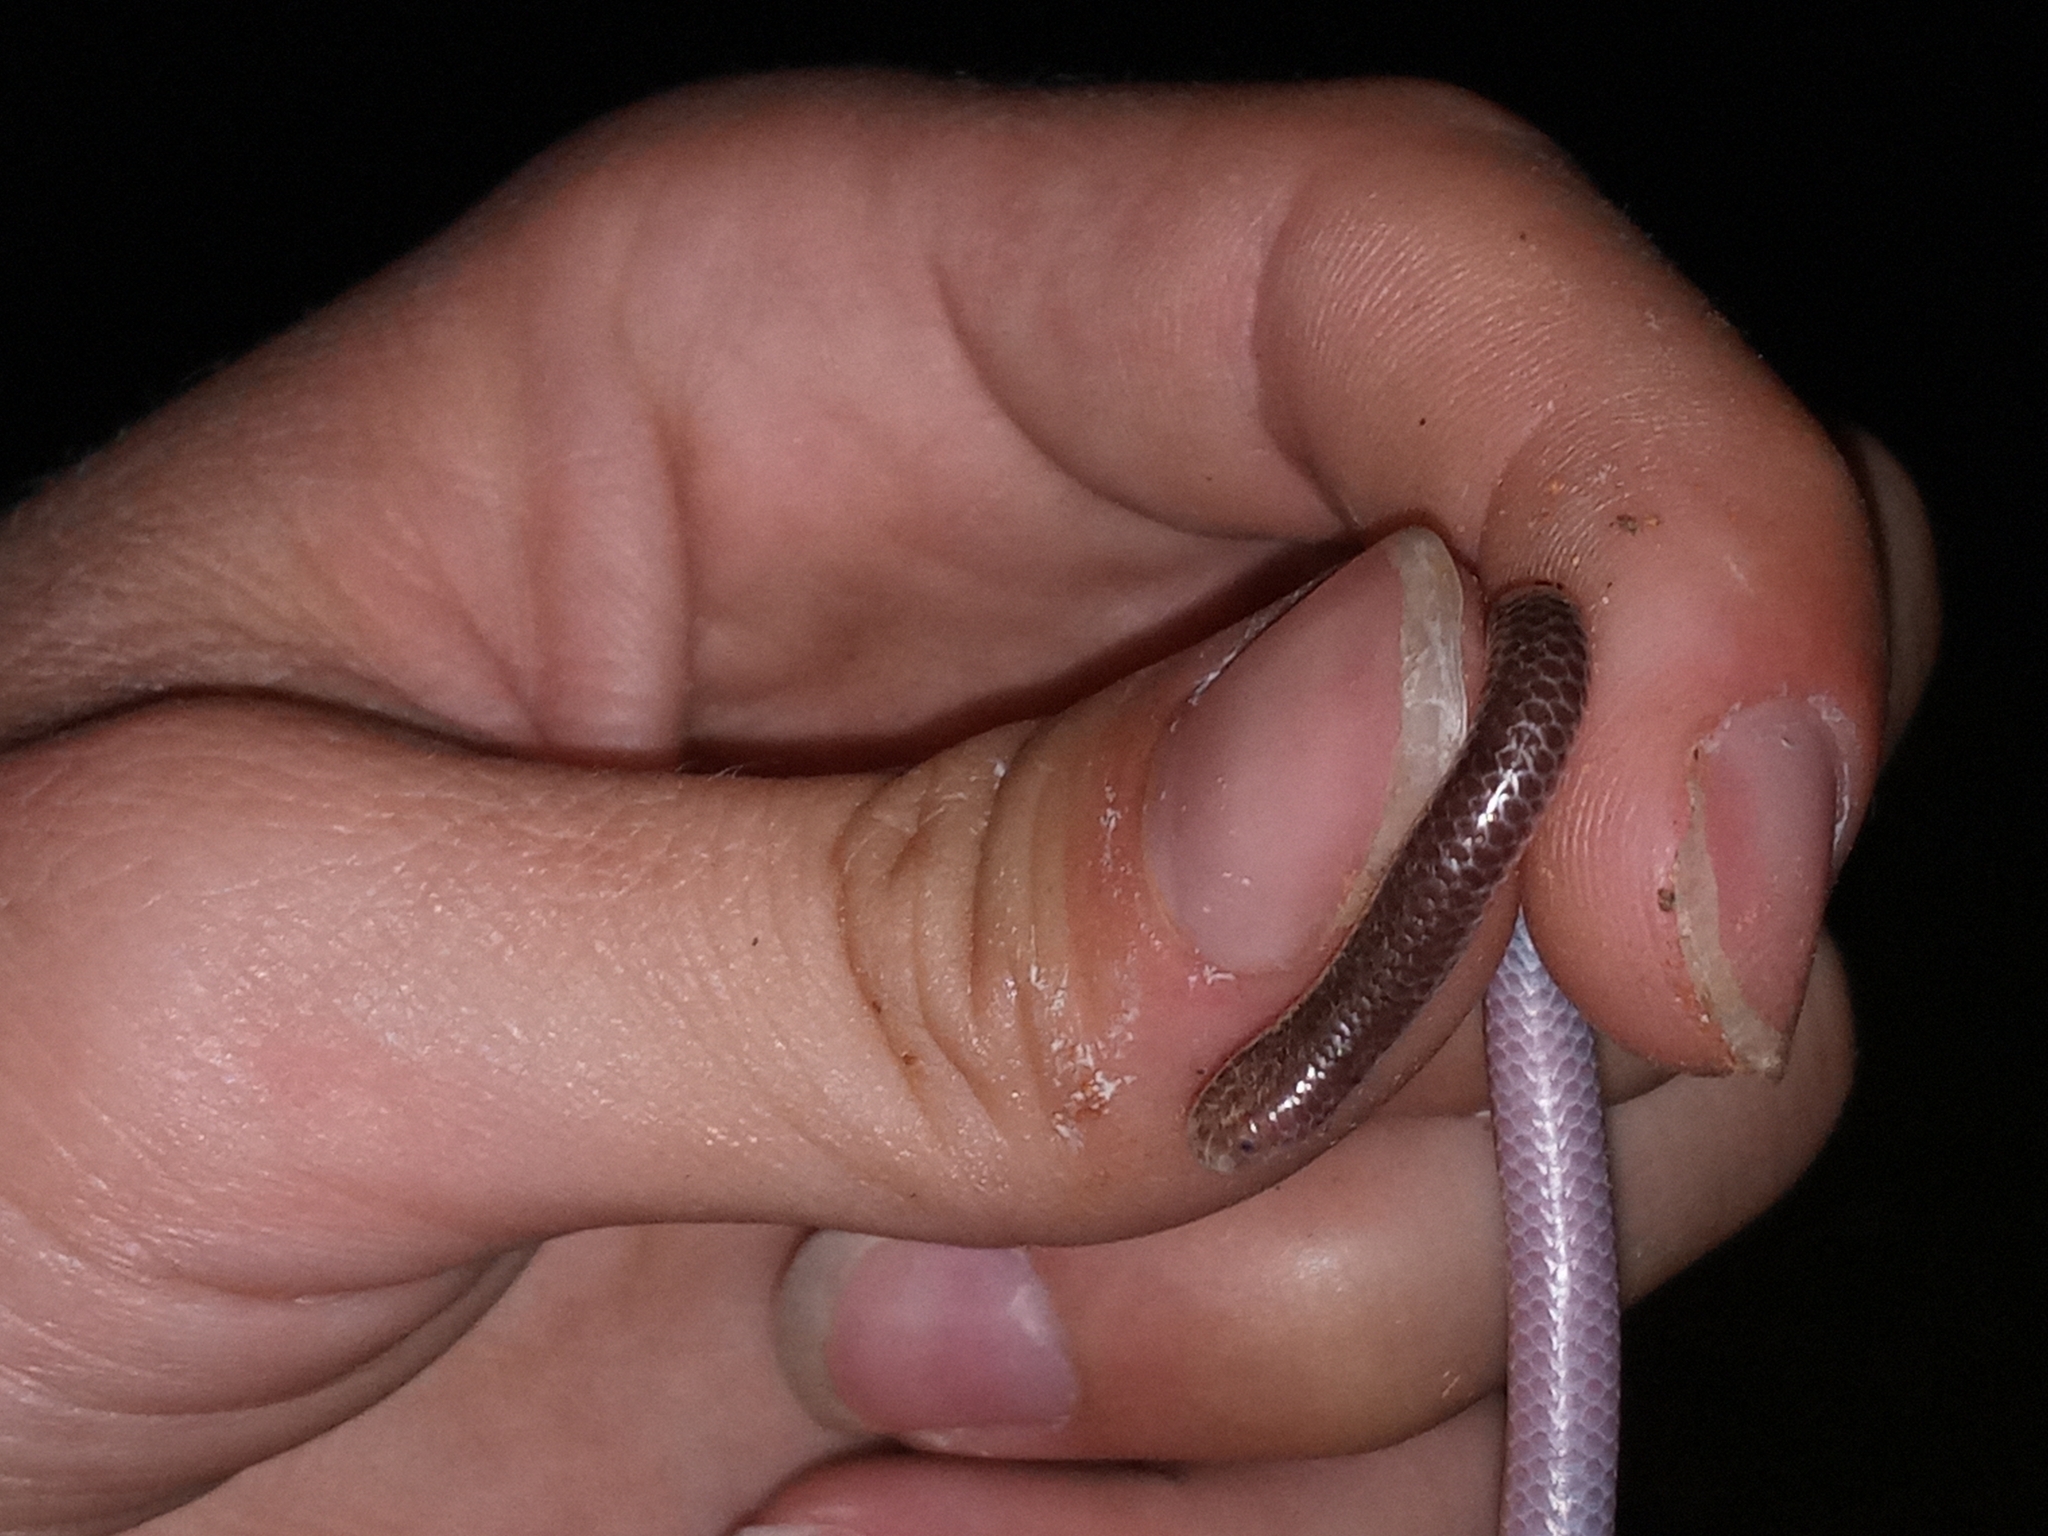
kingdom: Animalia
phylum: Chordata
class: Squamata
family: Leptotyphlopidae
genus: Rena
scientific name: Rena humilis
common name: Western threadsnake
